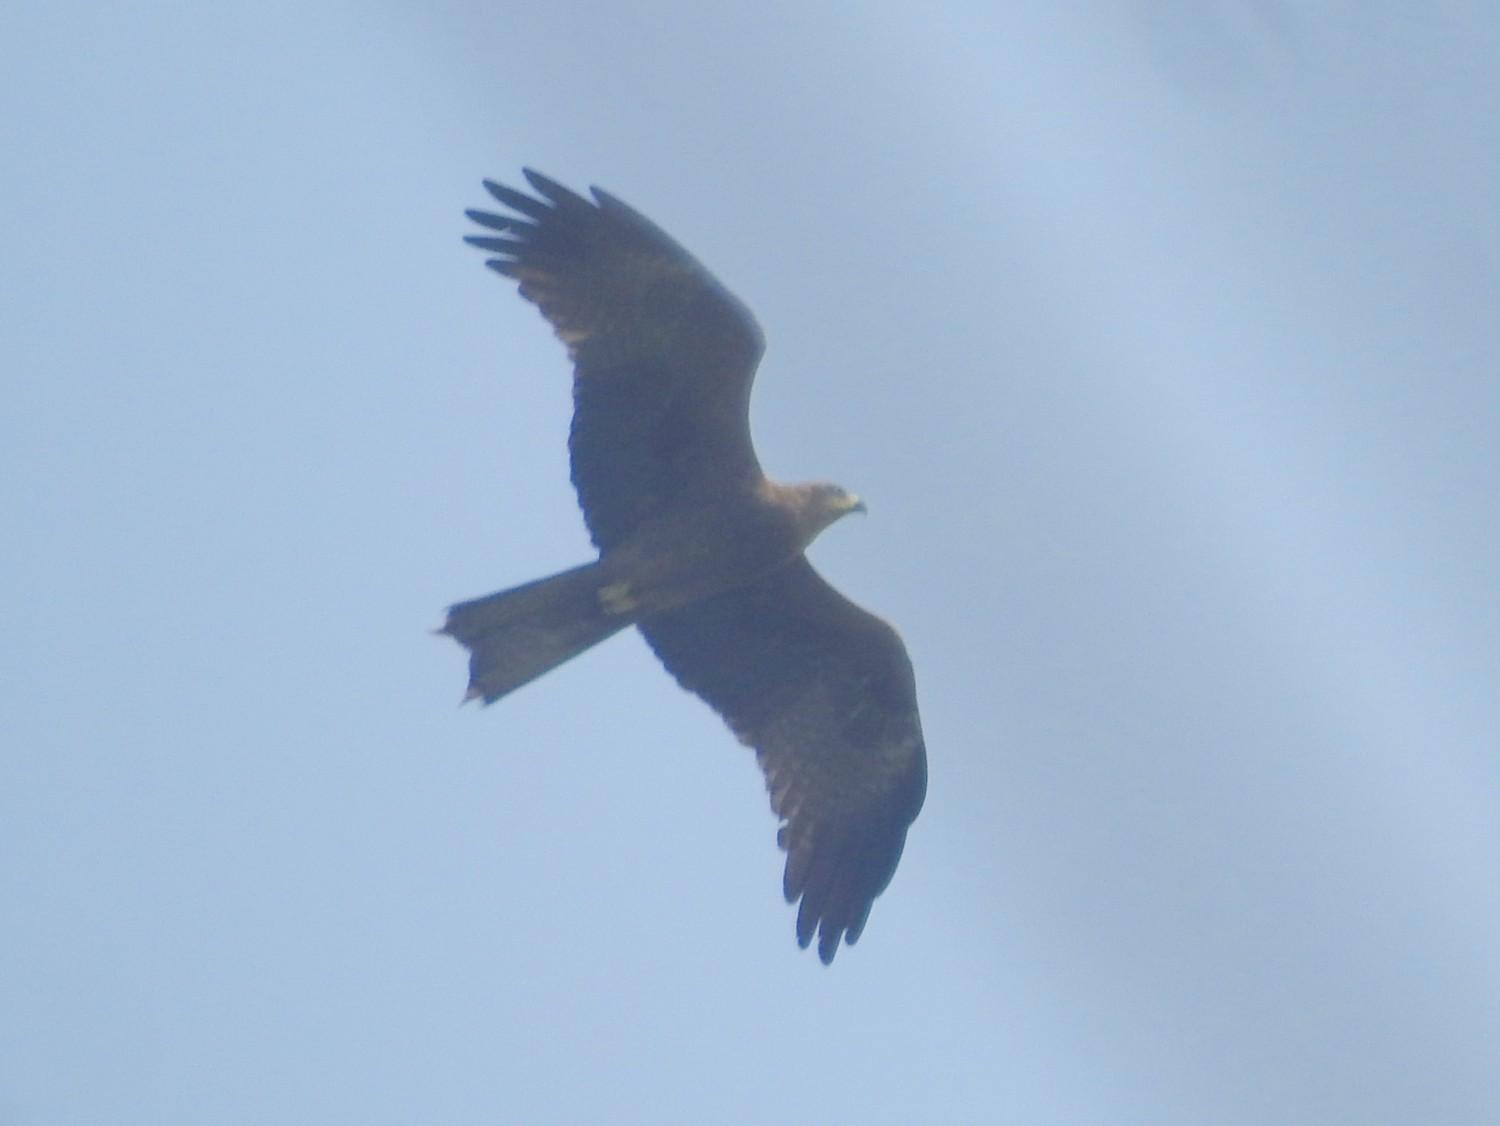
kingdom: Animalia
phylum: Chordata
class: Aves
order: Accipitriformes
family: Accipitridae
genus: Milvus
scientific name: Milvus migrans
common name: Black kite
